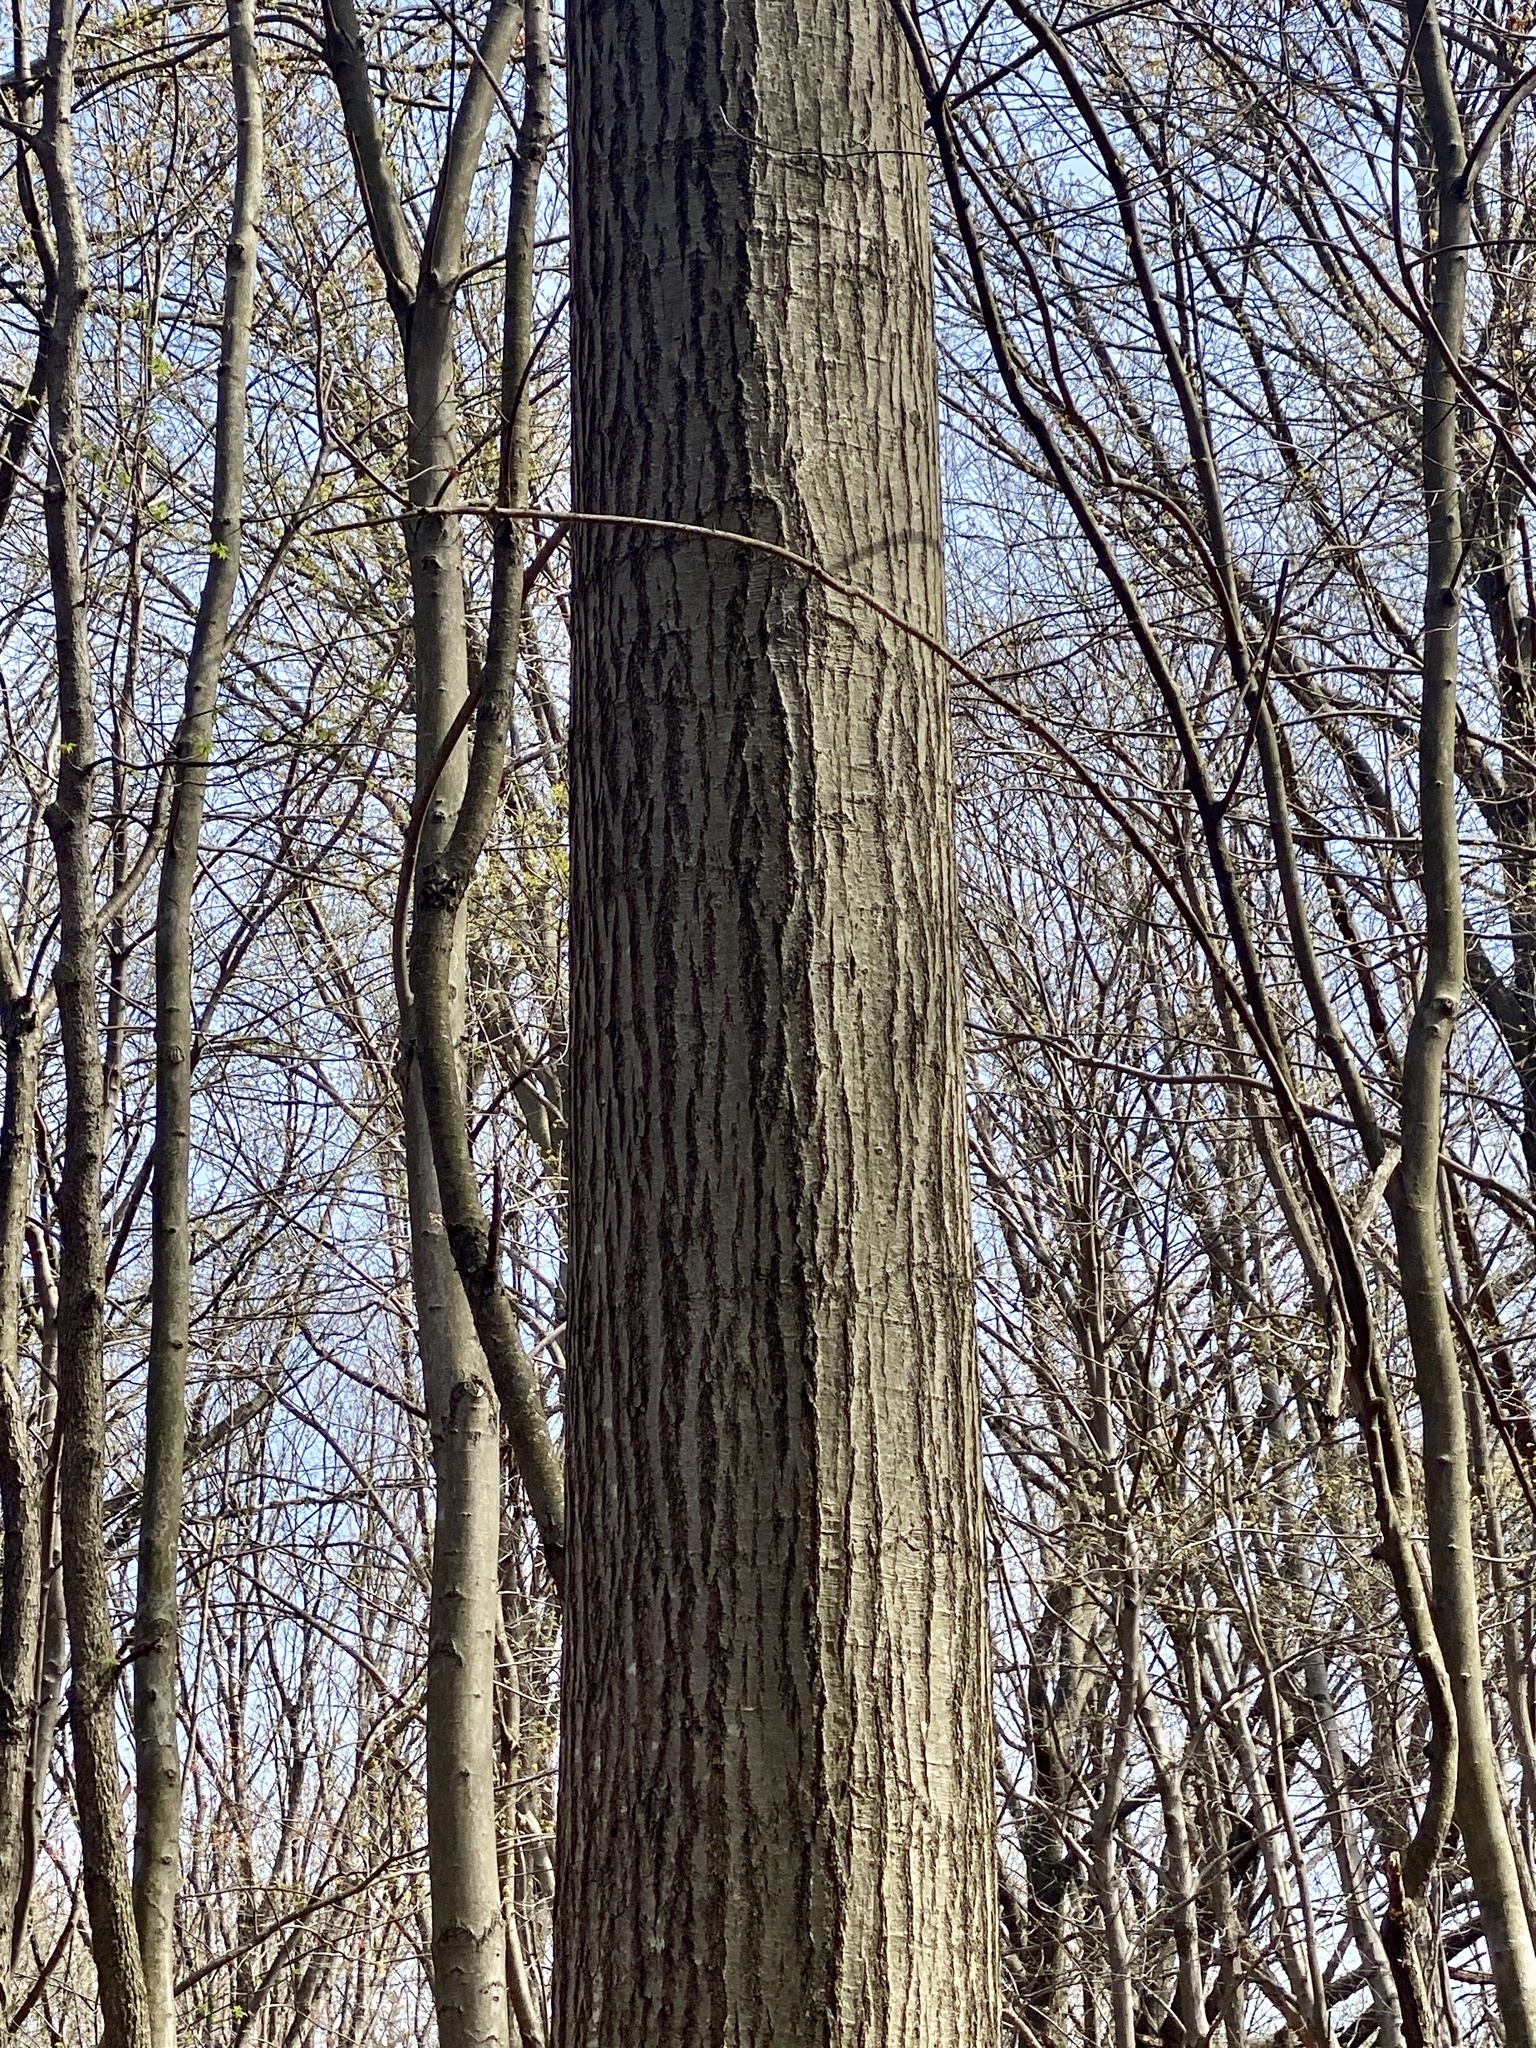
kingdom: Plantae
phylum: Tracheophyta
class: Magnoliopsida
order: Fagales
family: Fagaceae
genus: Quercus
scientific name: Quercus rubra
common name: Red oak
